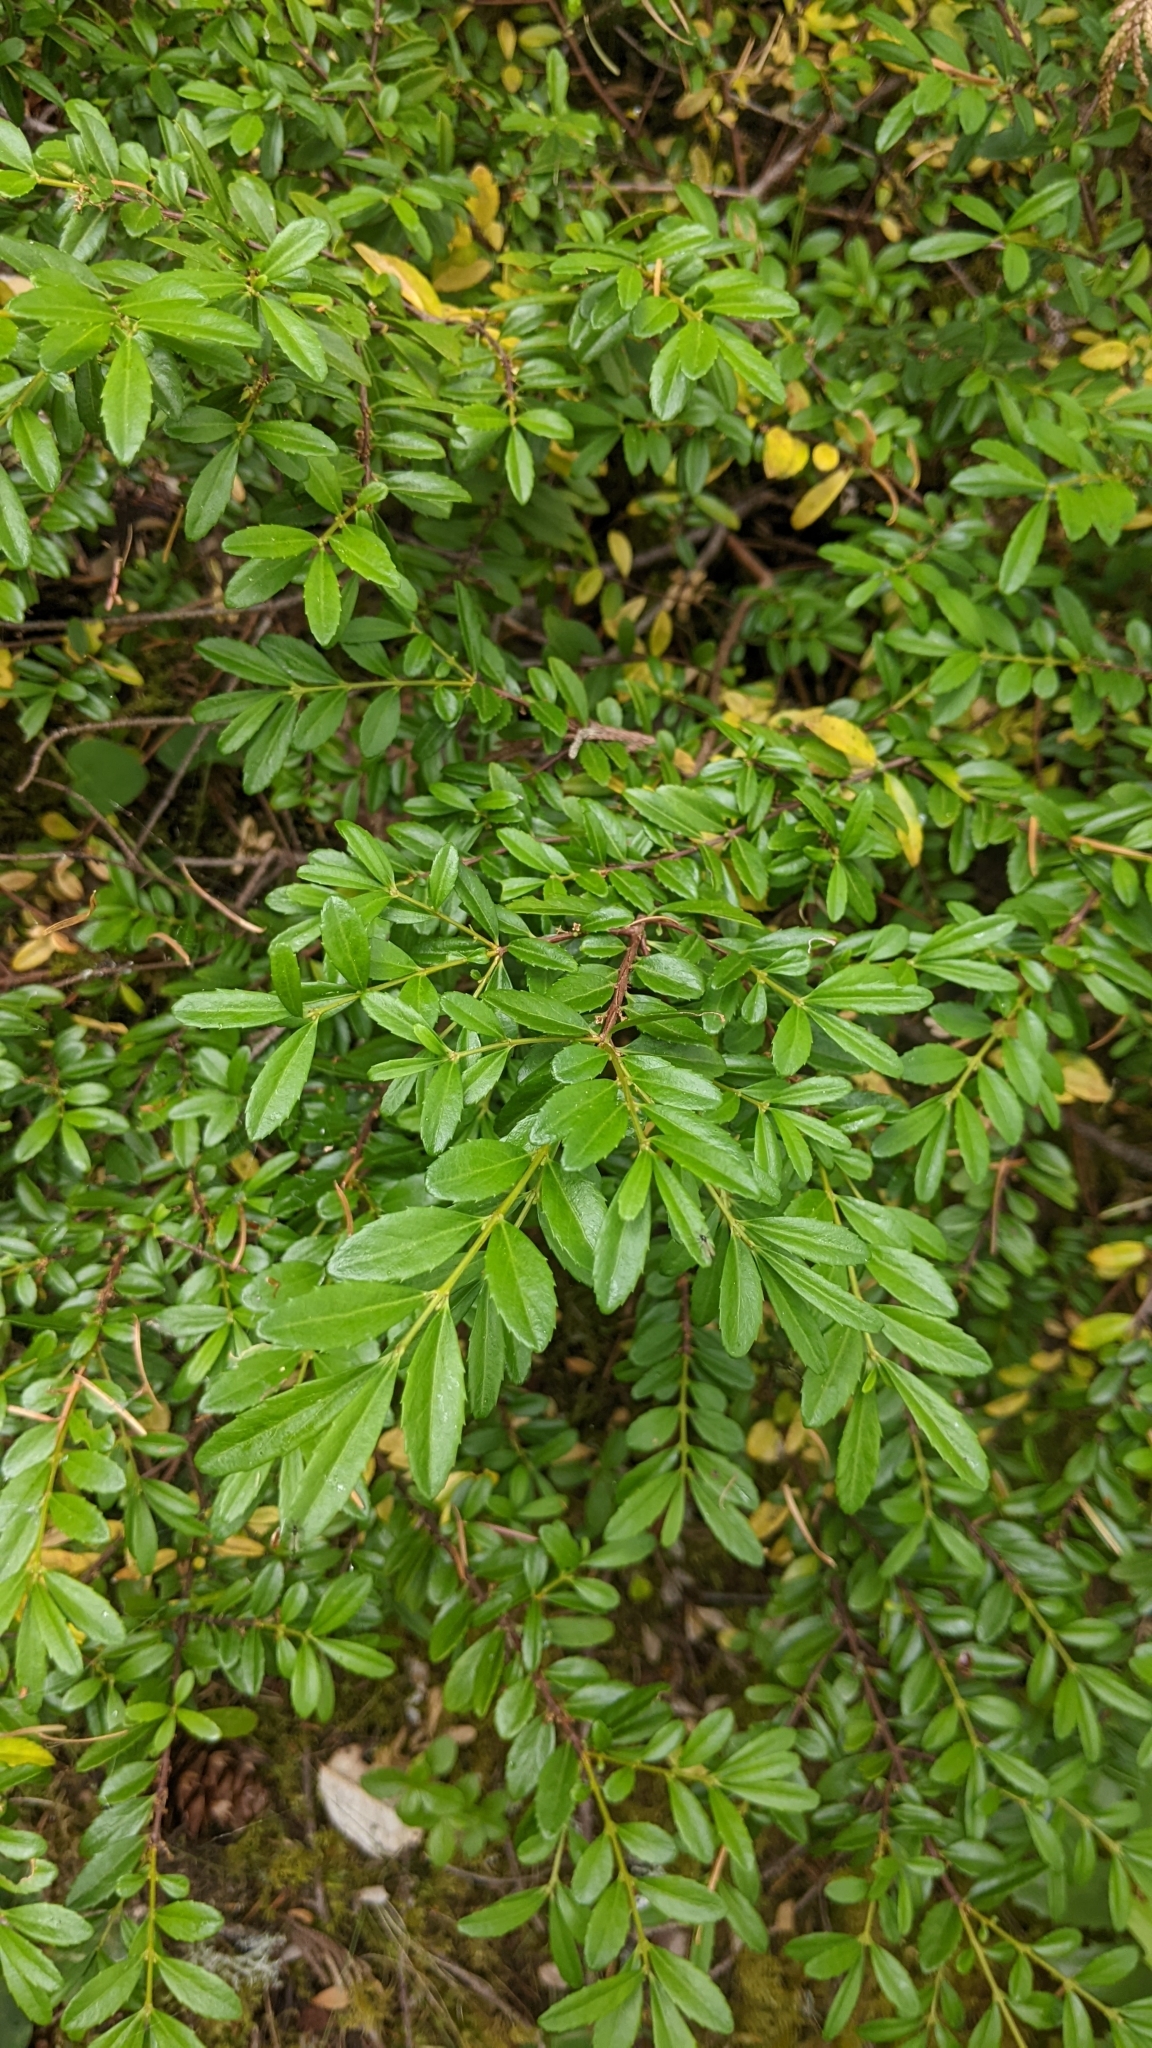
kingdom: Plantae
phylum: Tracheophyta
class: Magnoliopsida
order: Celastrales
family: Celastraceae
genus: Paxistima
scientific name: Paxistima myrsinites
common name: Mountain-lover
